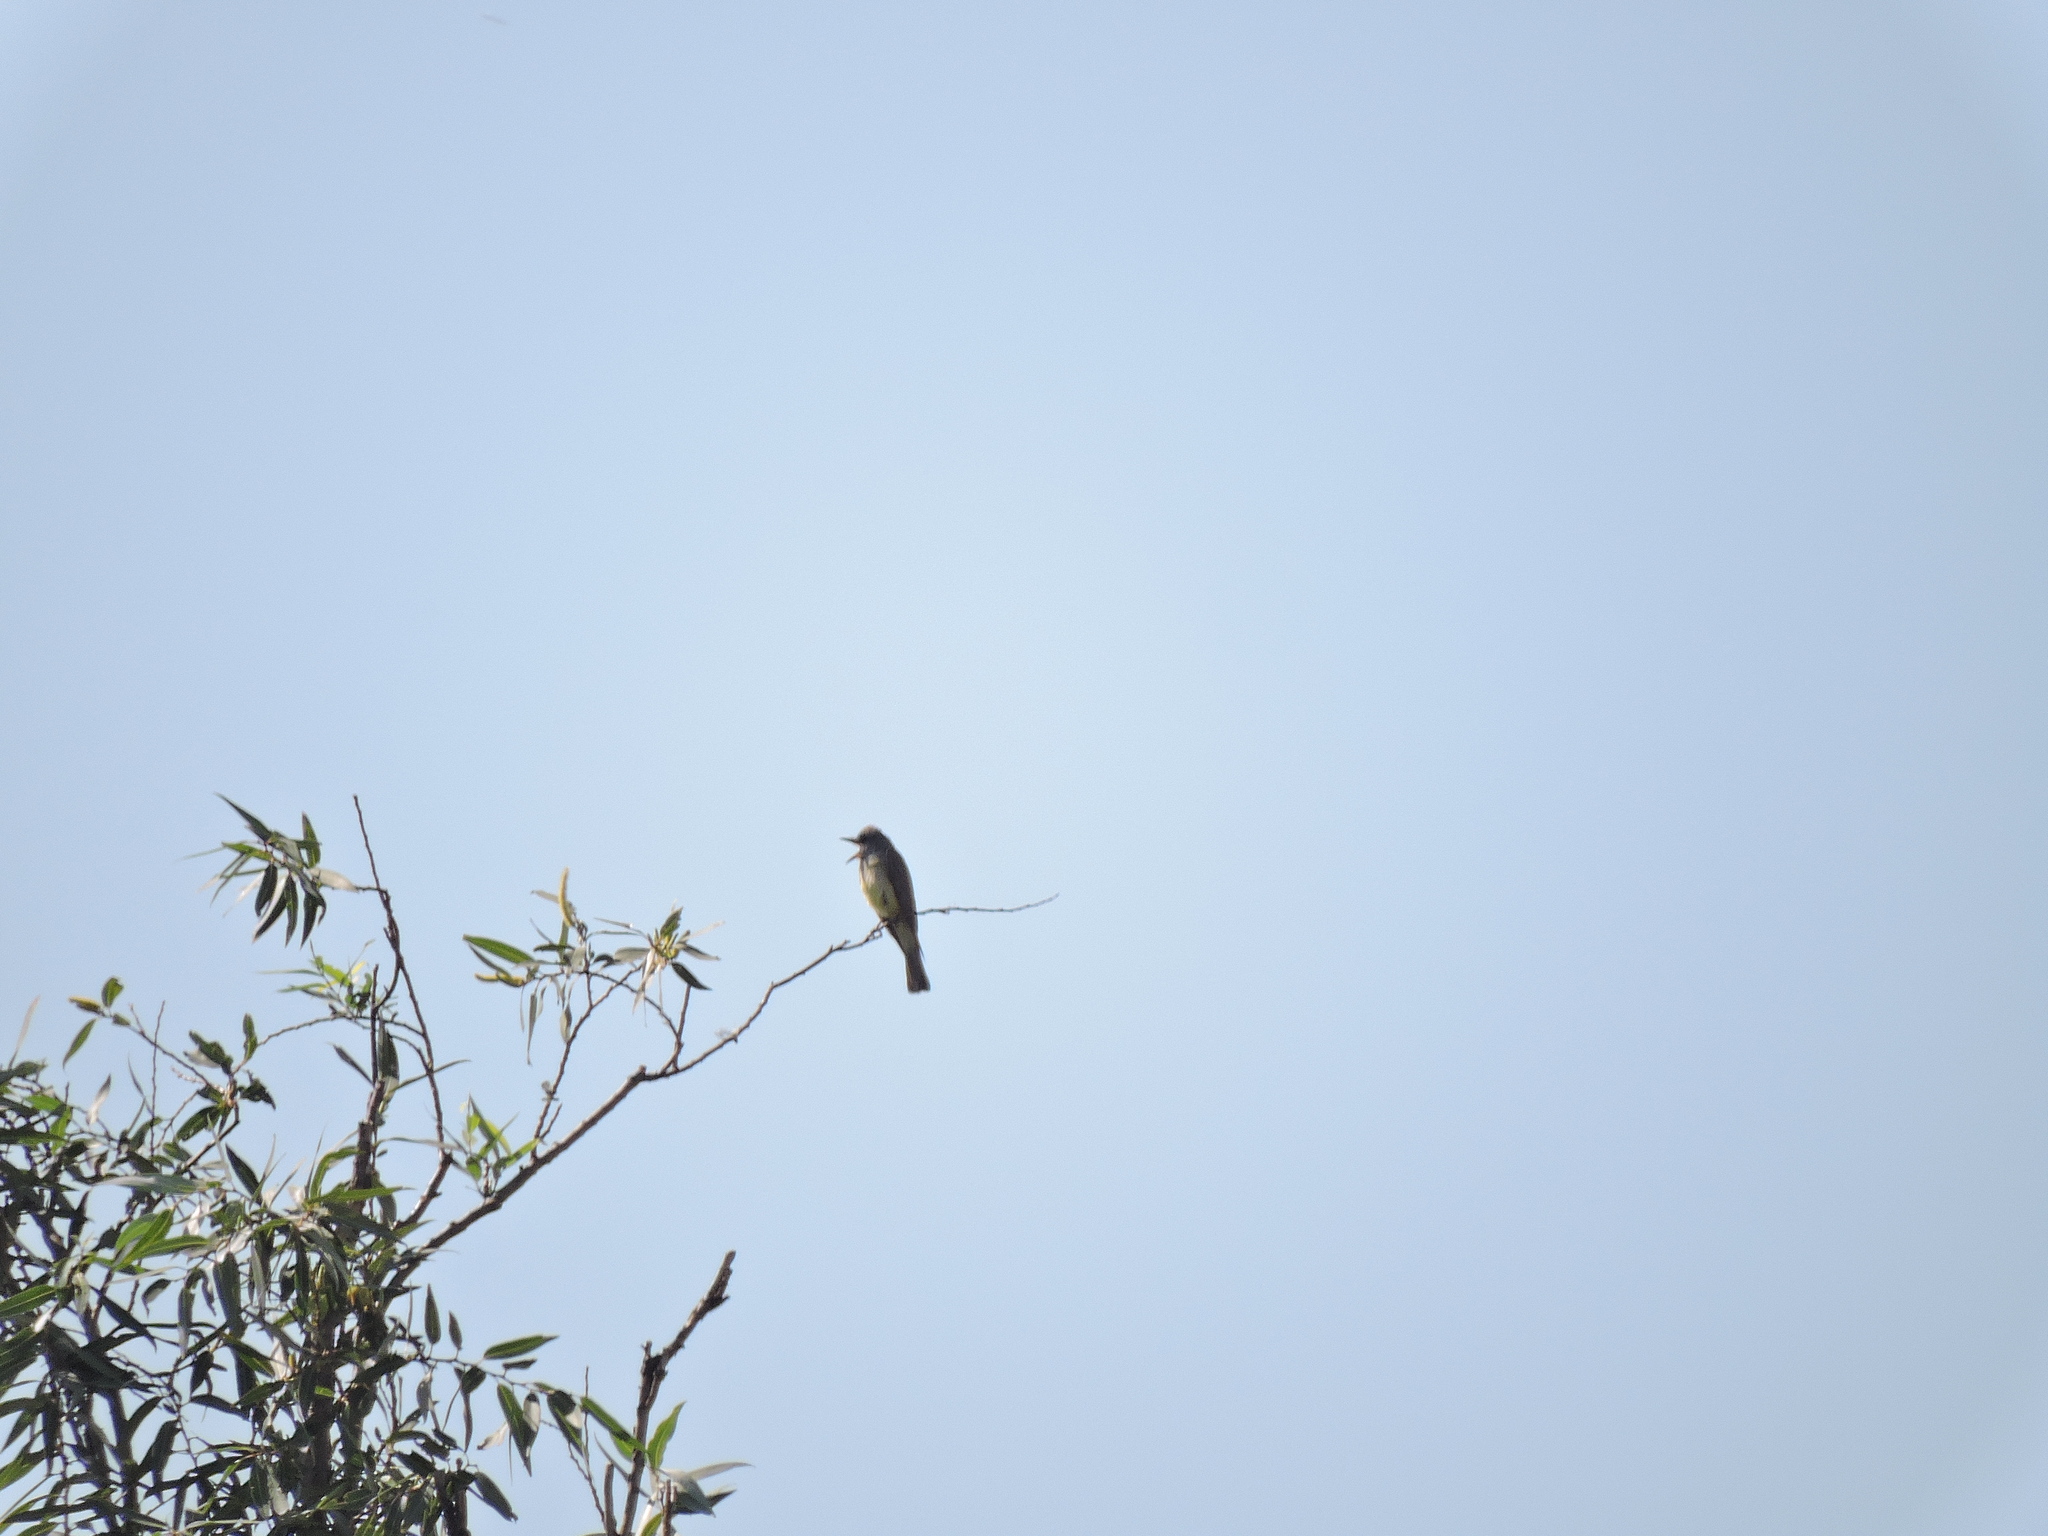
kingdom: Animalia
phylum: Chordata
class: Aves
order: Passeriformes
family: Tyrannidae
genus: Tyrannus
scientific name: Tyrannus vociferans
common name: Cassin's kingbird
